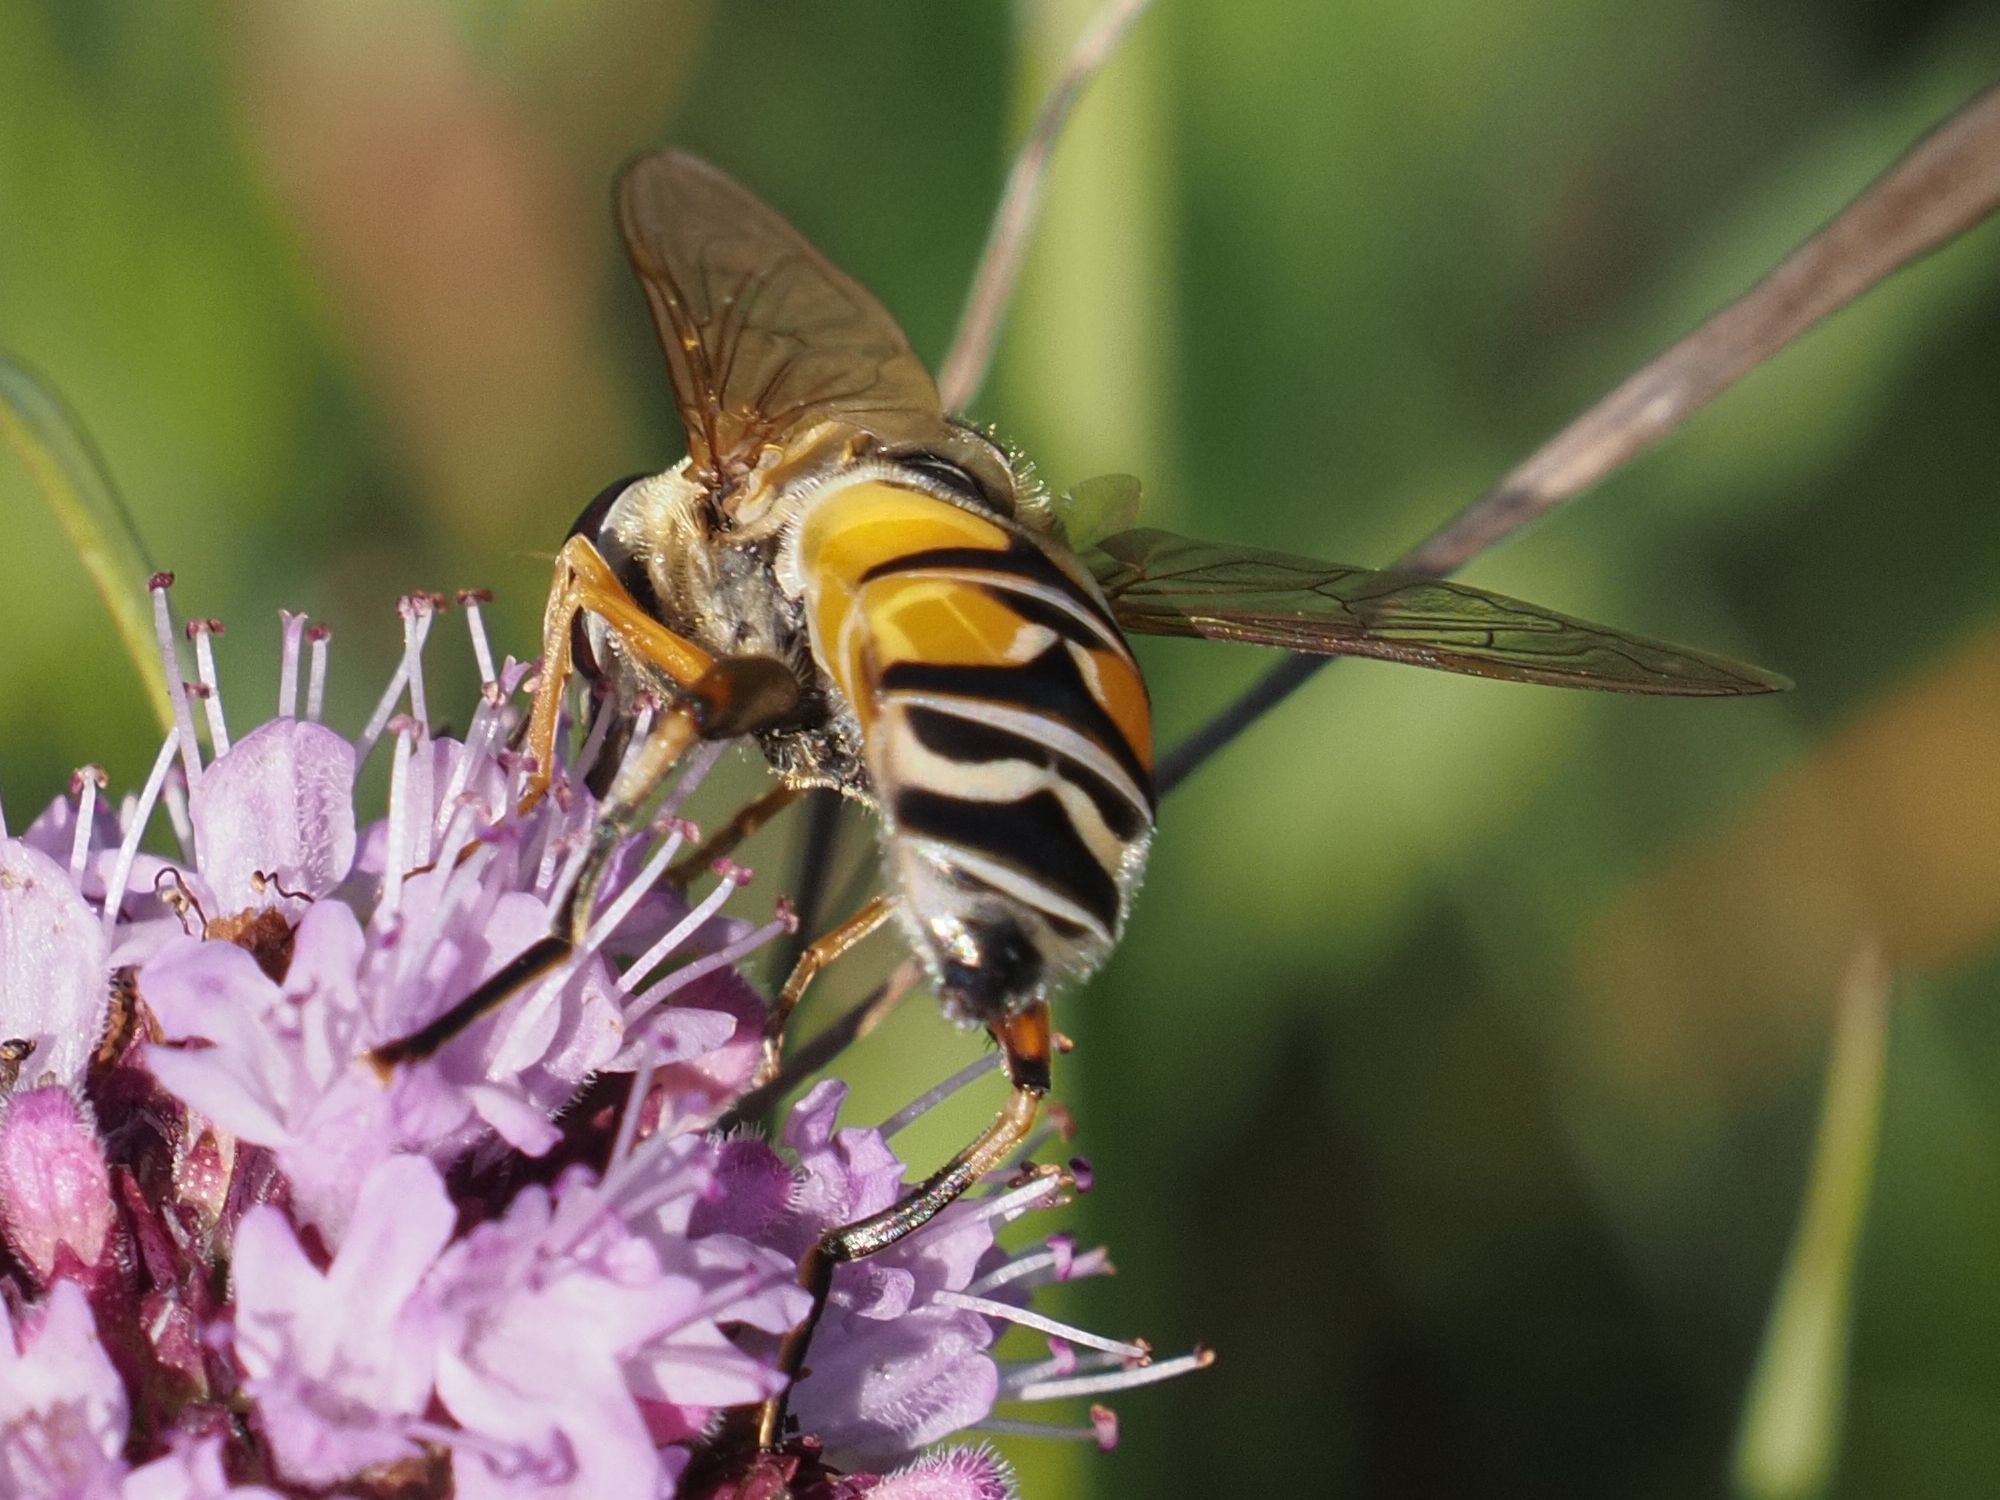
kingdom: Animalia
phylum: Arthropoda
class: Insecta
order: Diptera
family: Syrphidae
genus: Helophilus
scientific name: Helophilus trivittatus
